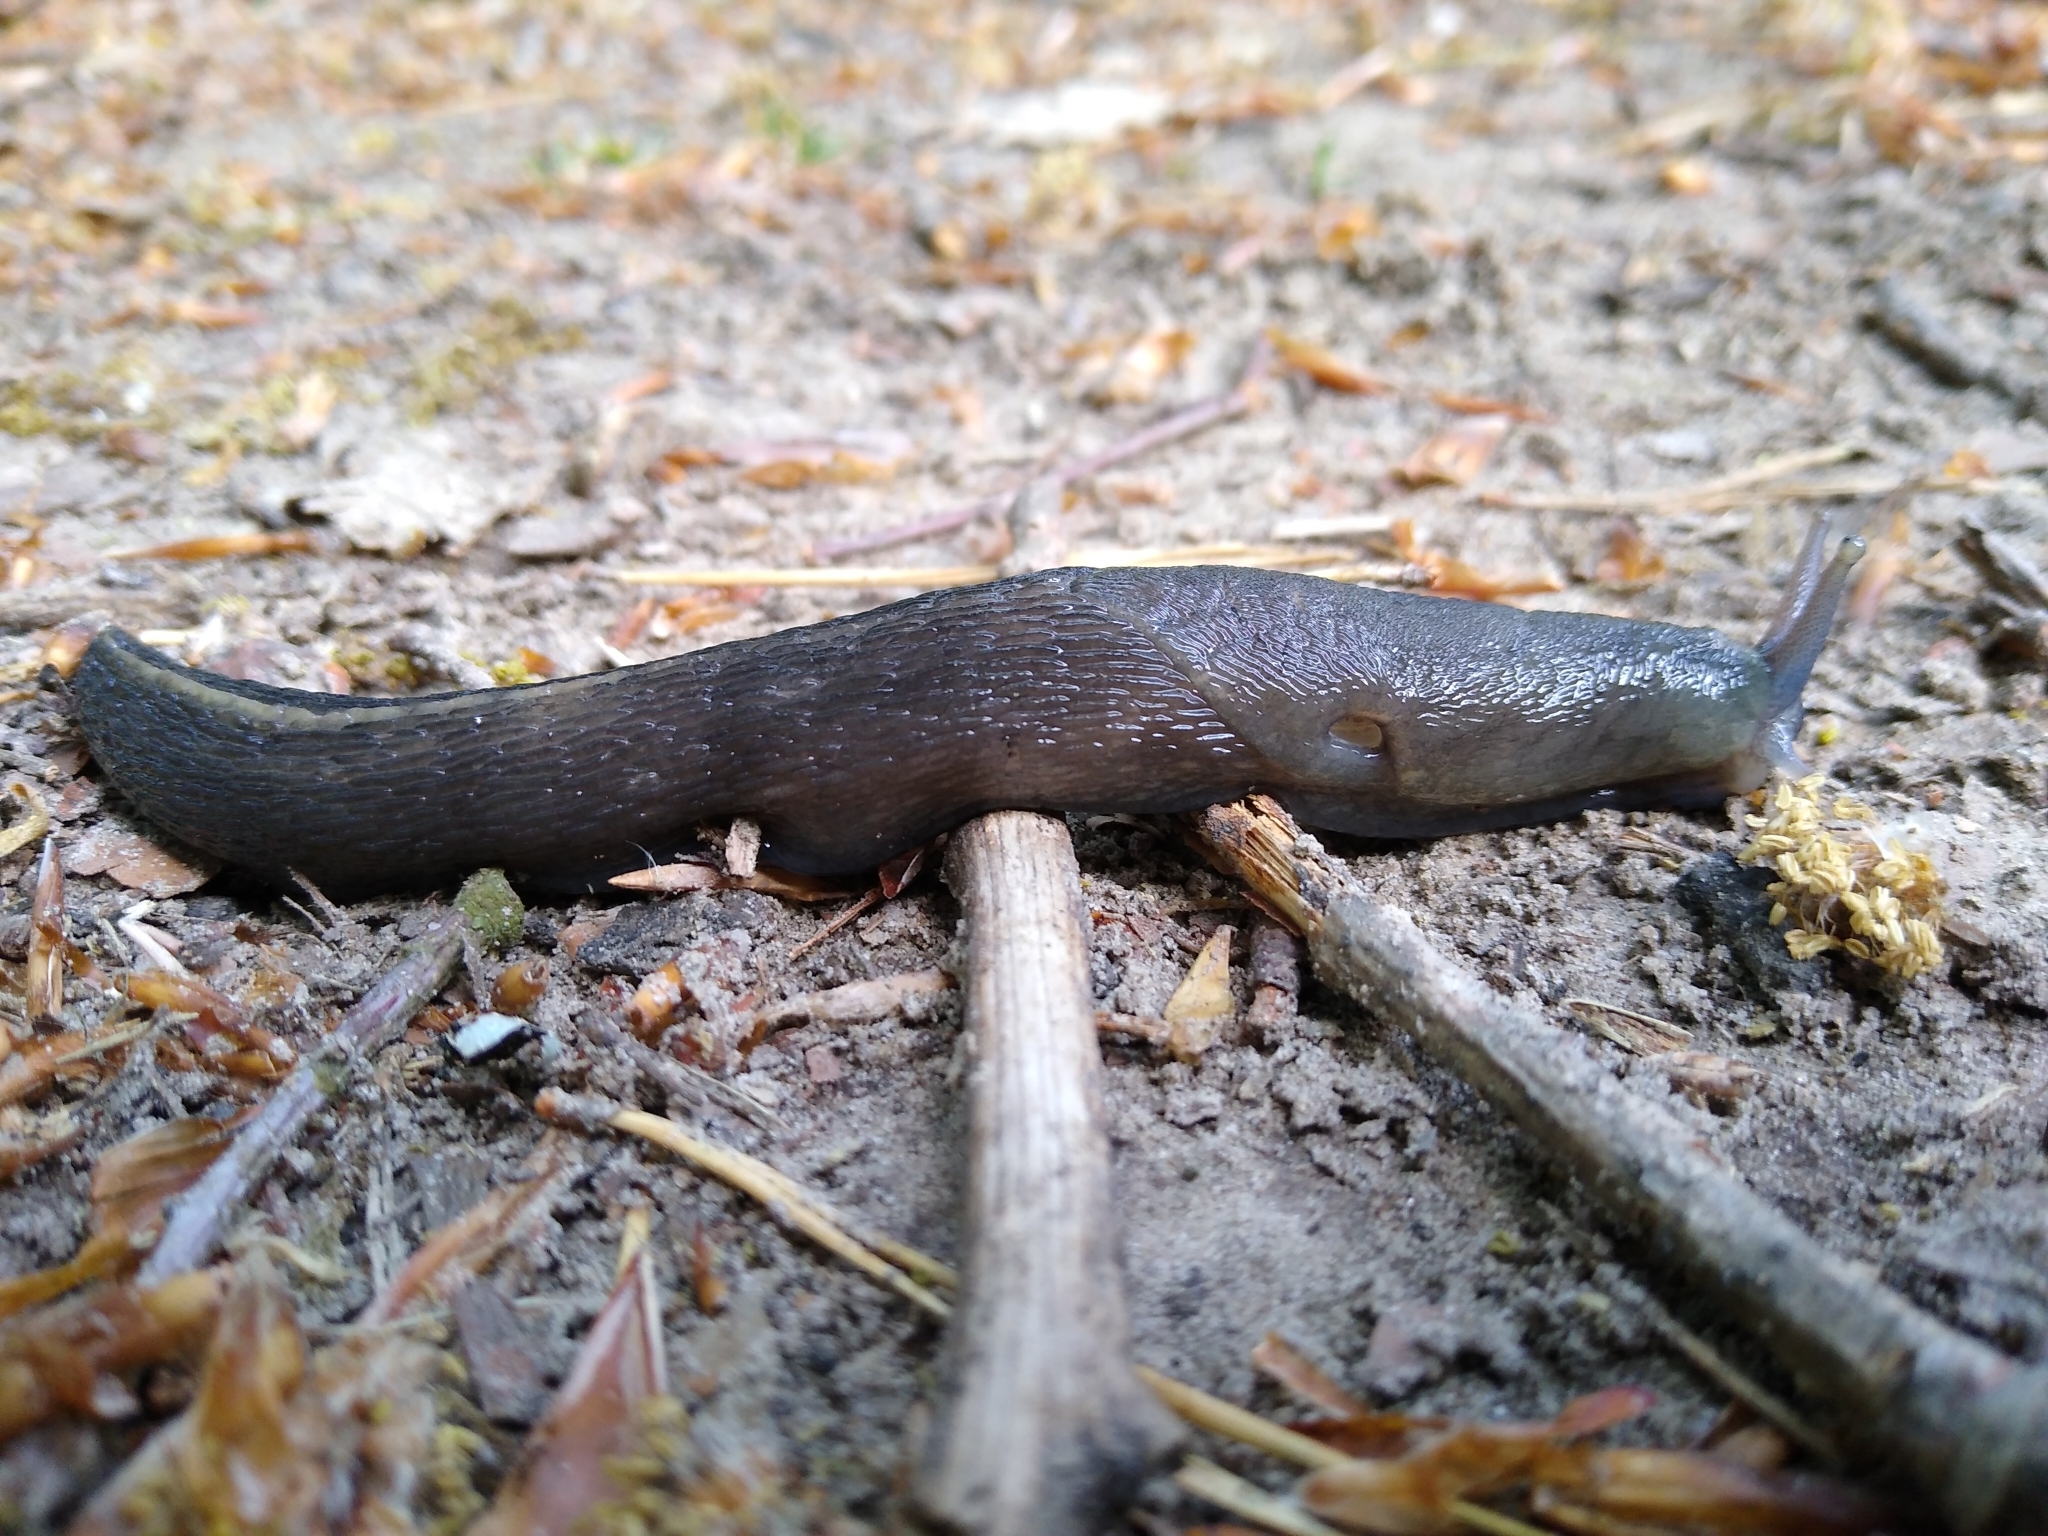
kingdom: Animalia
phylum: Mollusca
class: Gastropoda
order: Stylommatophora
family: Limacidae
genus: Limax
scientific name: Limax cinereoniger
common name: Ash-black slug
